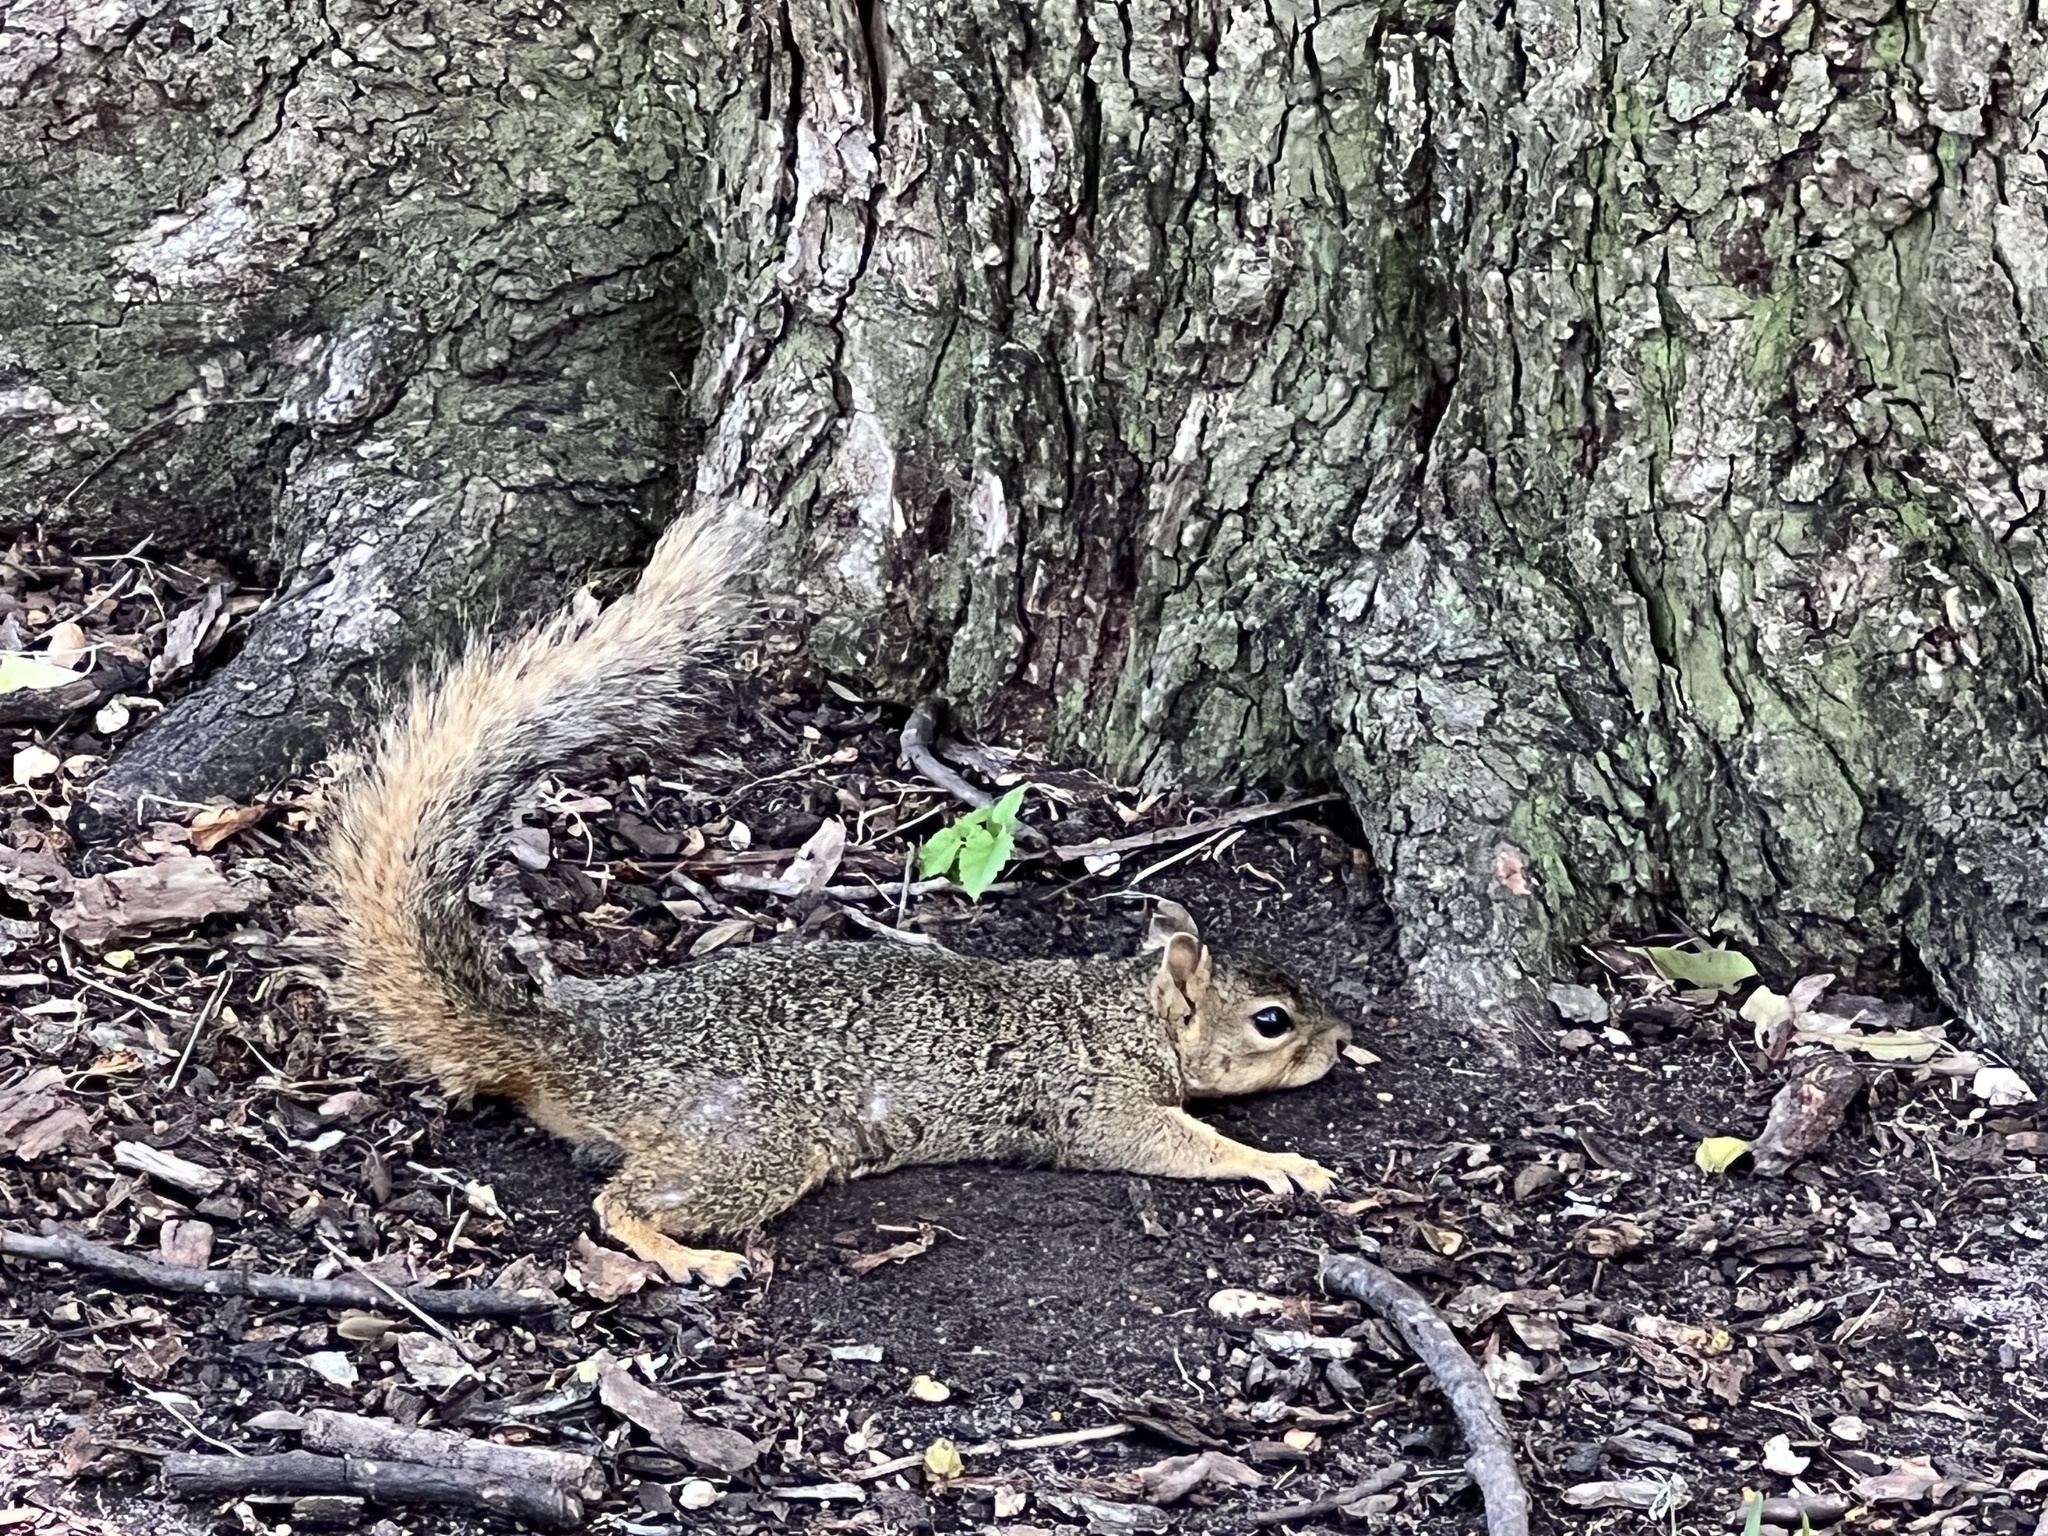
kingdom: Animalia
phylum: Chordata
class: Mammalia
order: Rodentia
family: Sciuridae
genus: Sciurus
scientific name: Sciurus niger
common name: Fox squirrel
